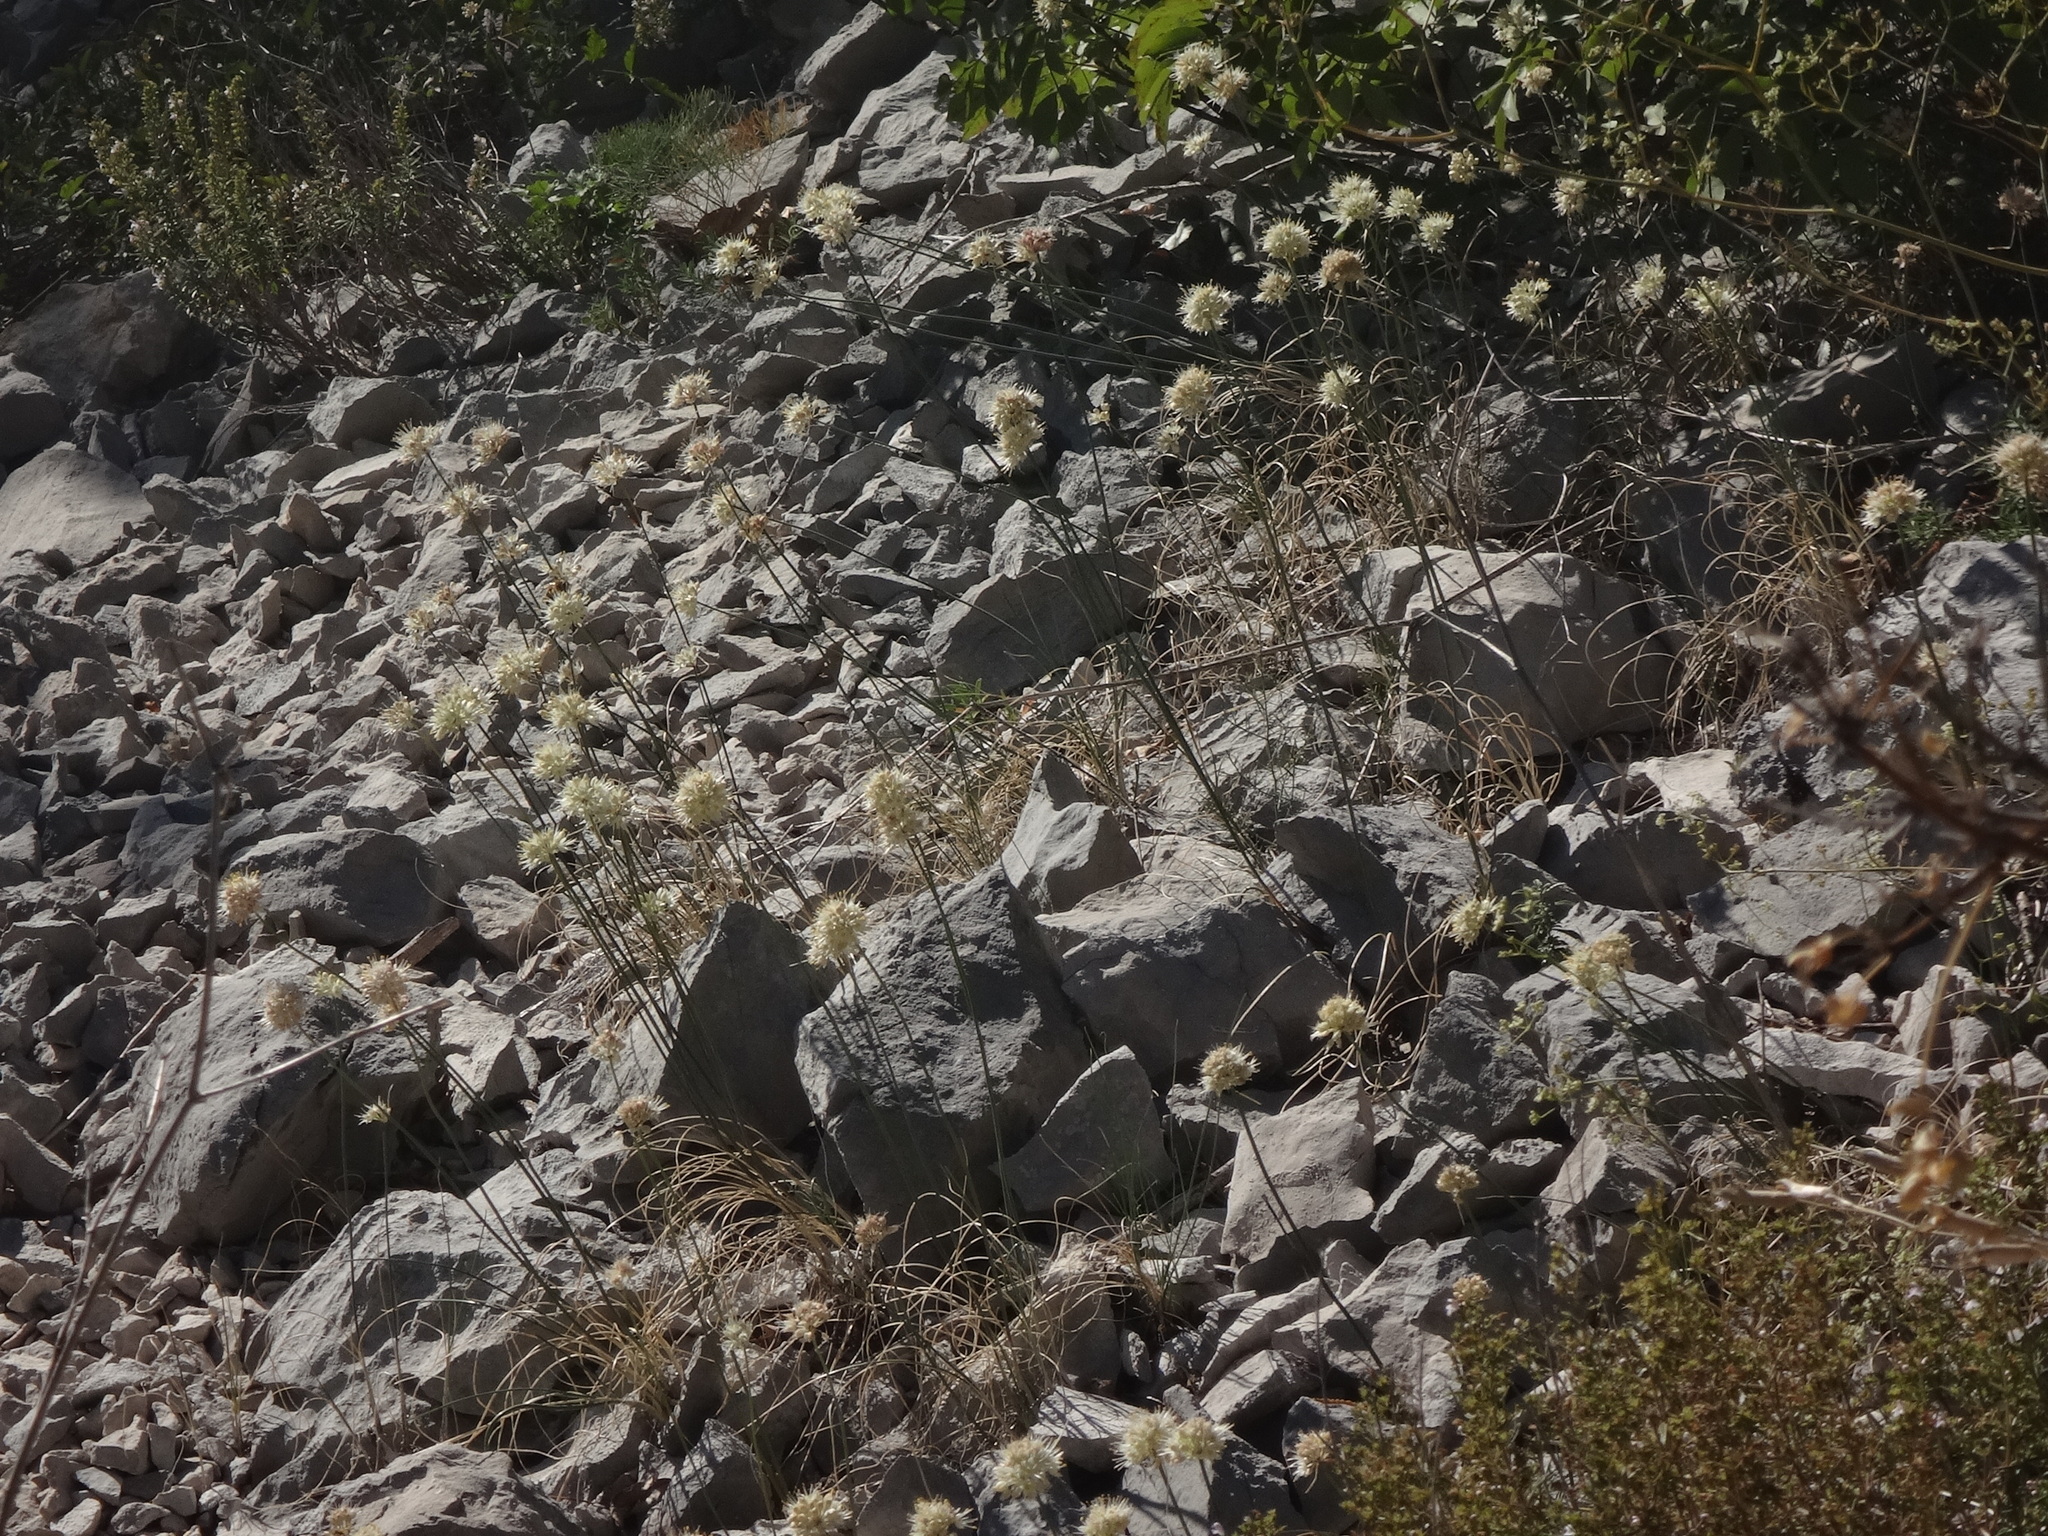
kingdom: Plantae
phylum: Tracheophyta
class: Liliopsida
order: Asparagales
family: Amaryllidaceae
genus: Allium
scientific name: Allium horvatii
